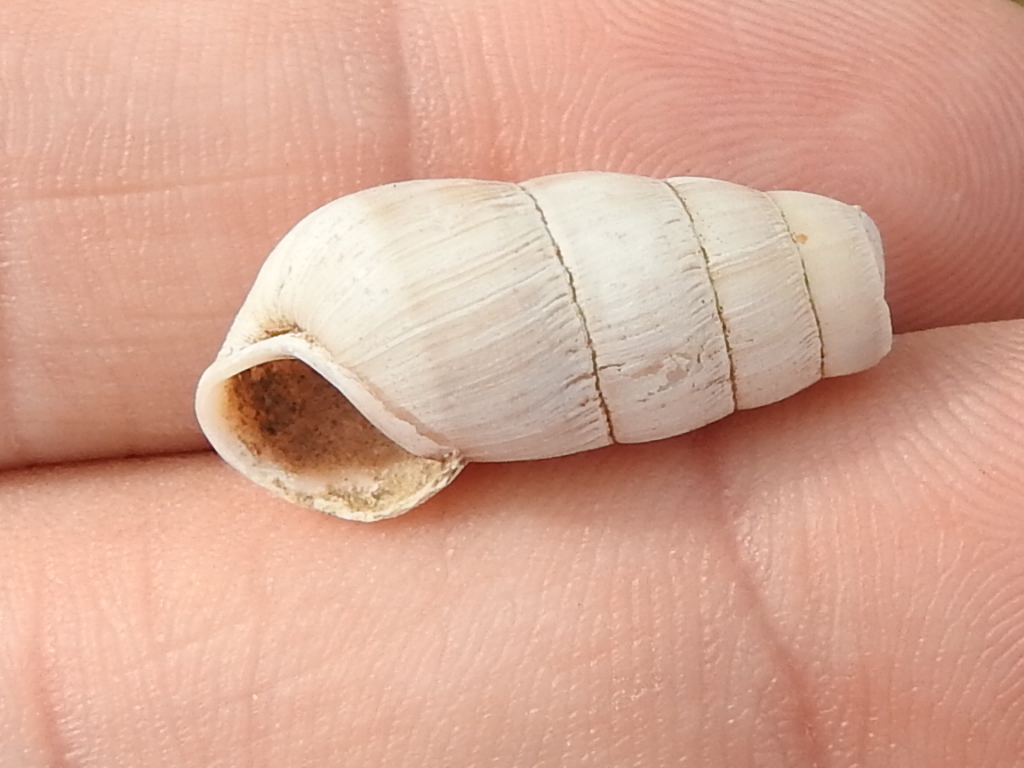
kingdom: Animalia
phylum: Mollusca
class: Gastropoda
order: Stylommatophora
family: Achatinidae
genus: Rumina
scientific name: Rumina decollata
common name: Decollate snail
